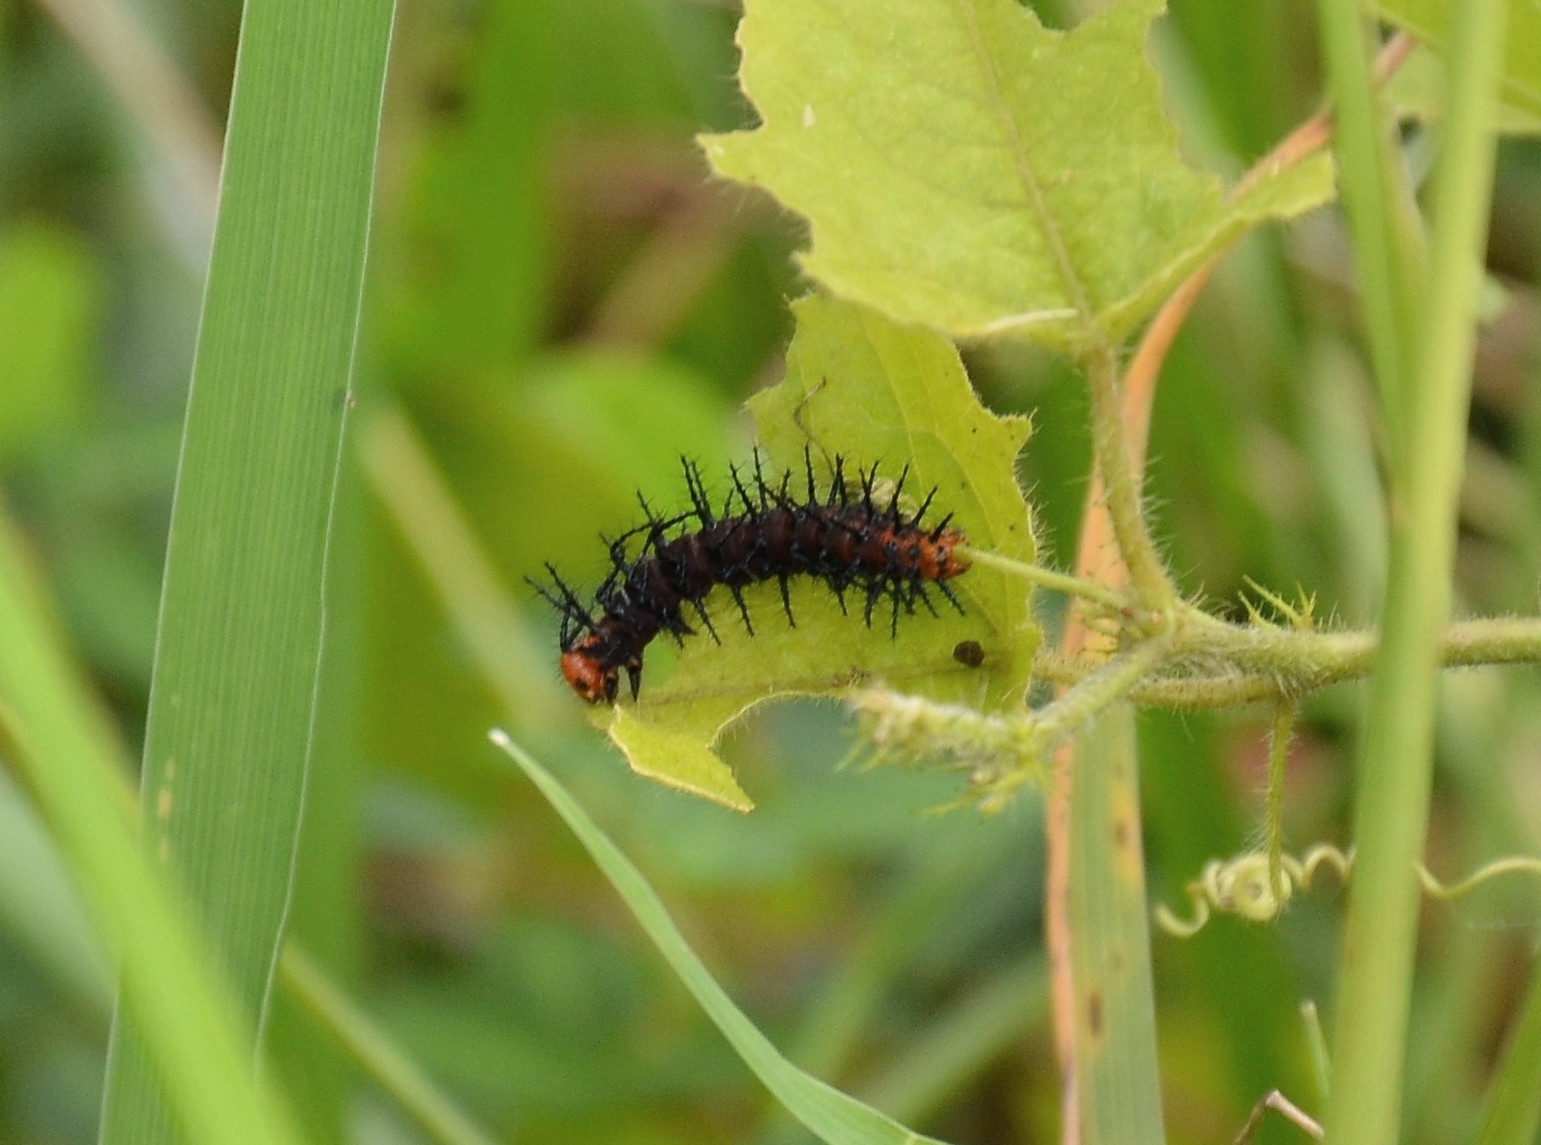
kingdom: Animalia
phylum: Arthropoda
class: Insecta
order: Lepidoptera
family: Nymphalidae
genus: Acraea
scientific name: Acraea terpsicore
